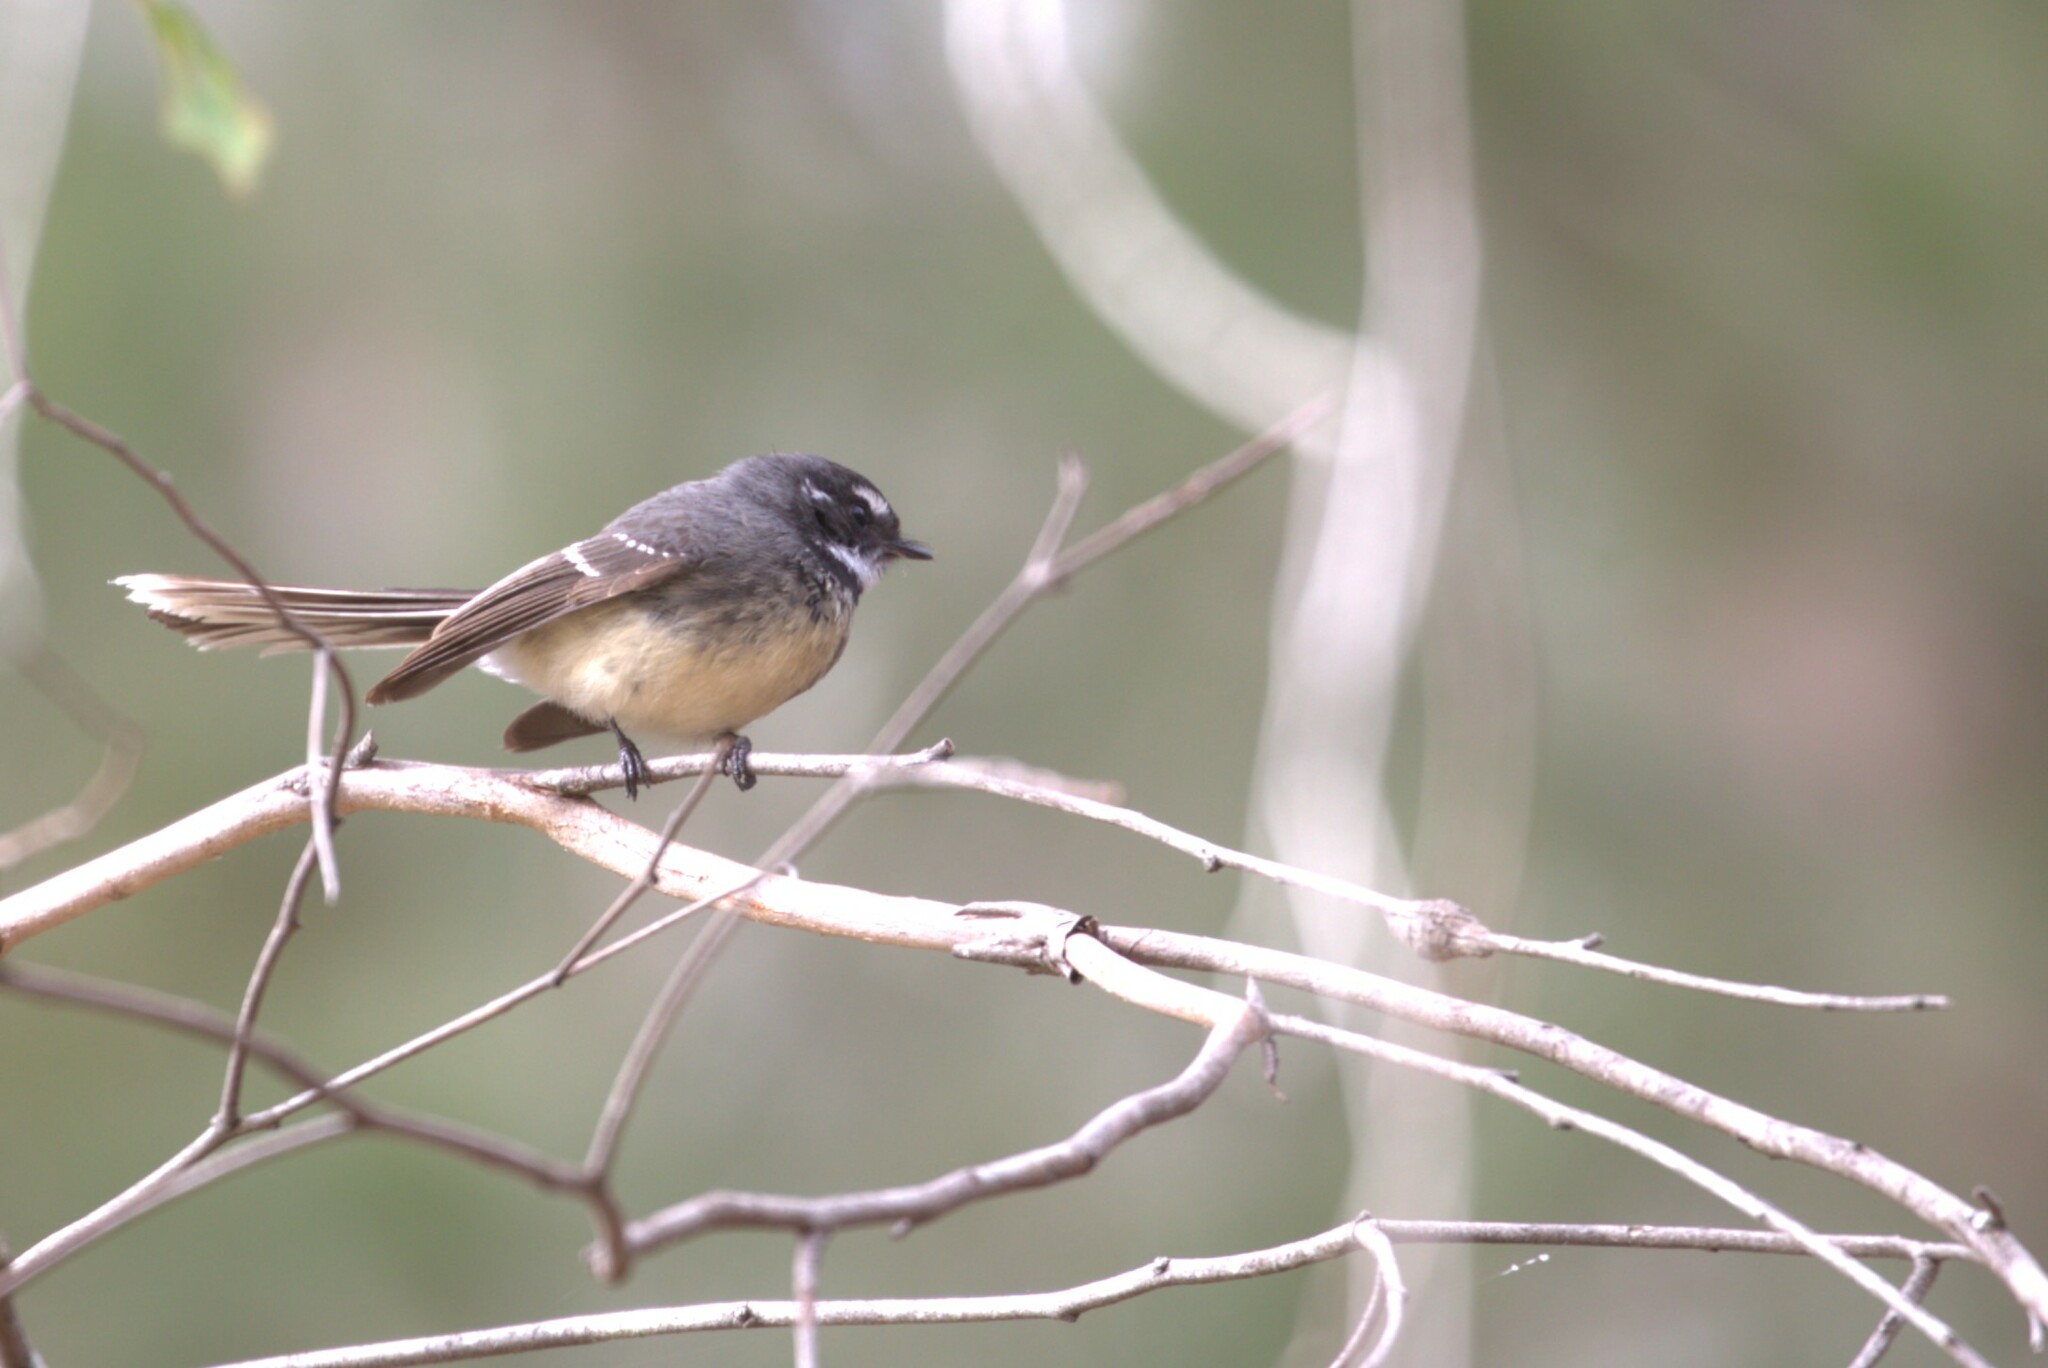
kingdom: Animalia
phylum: Chordata
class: Aves
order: Passeriformes
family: Rhipiduridae
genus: Rhipidura
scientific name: Rhipidura albiscapa
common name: Grey fantail
